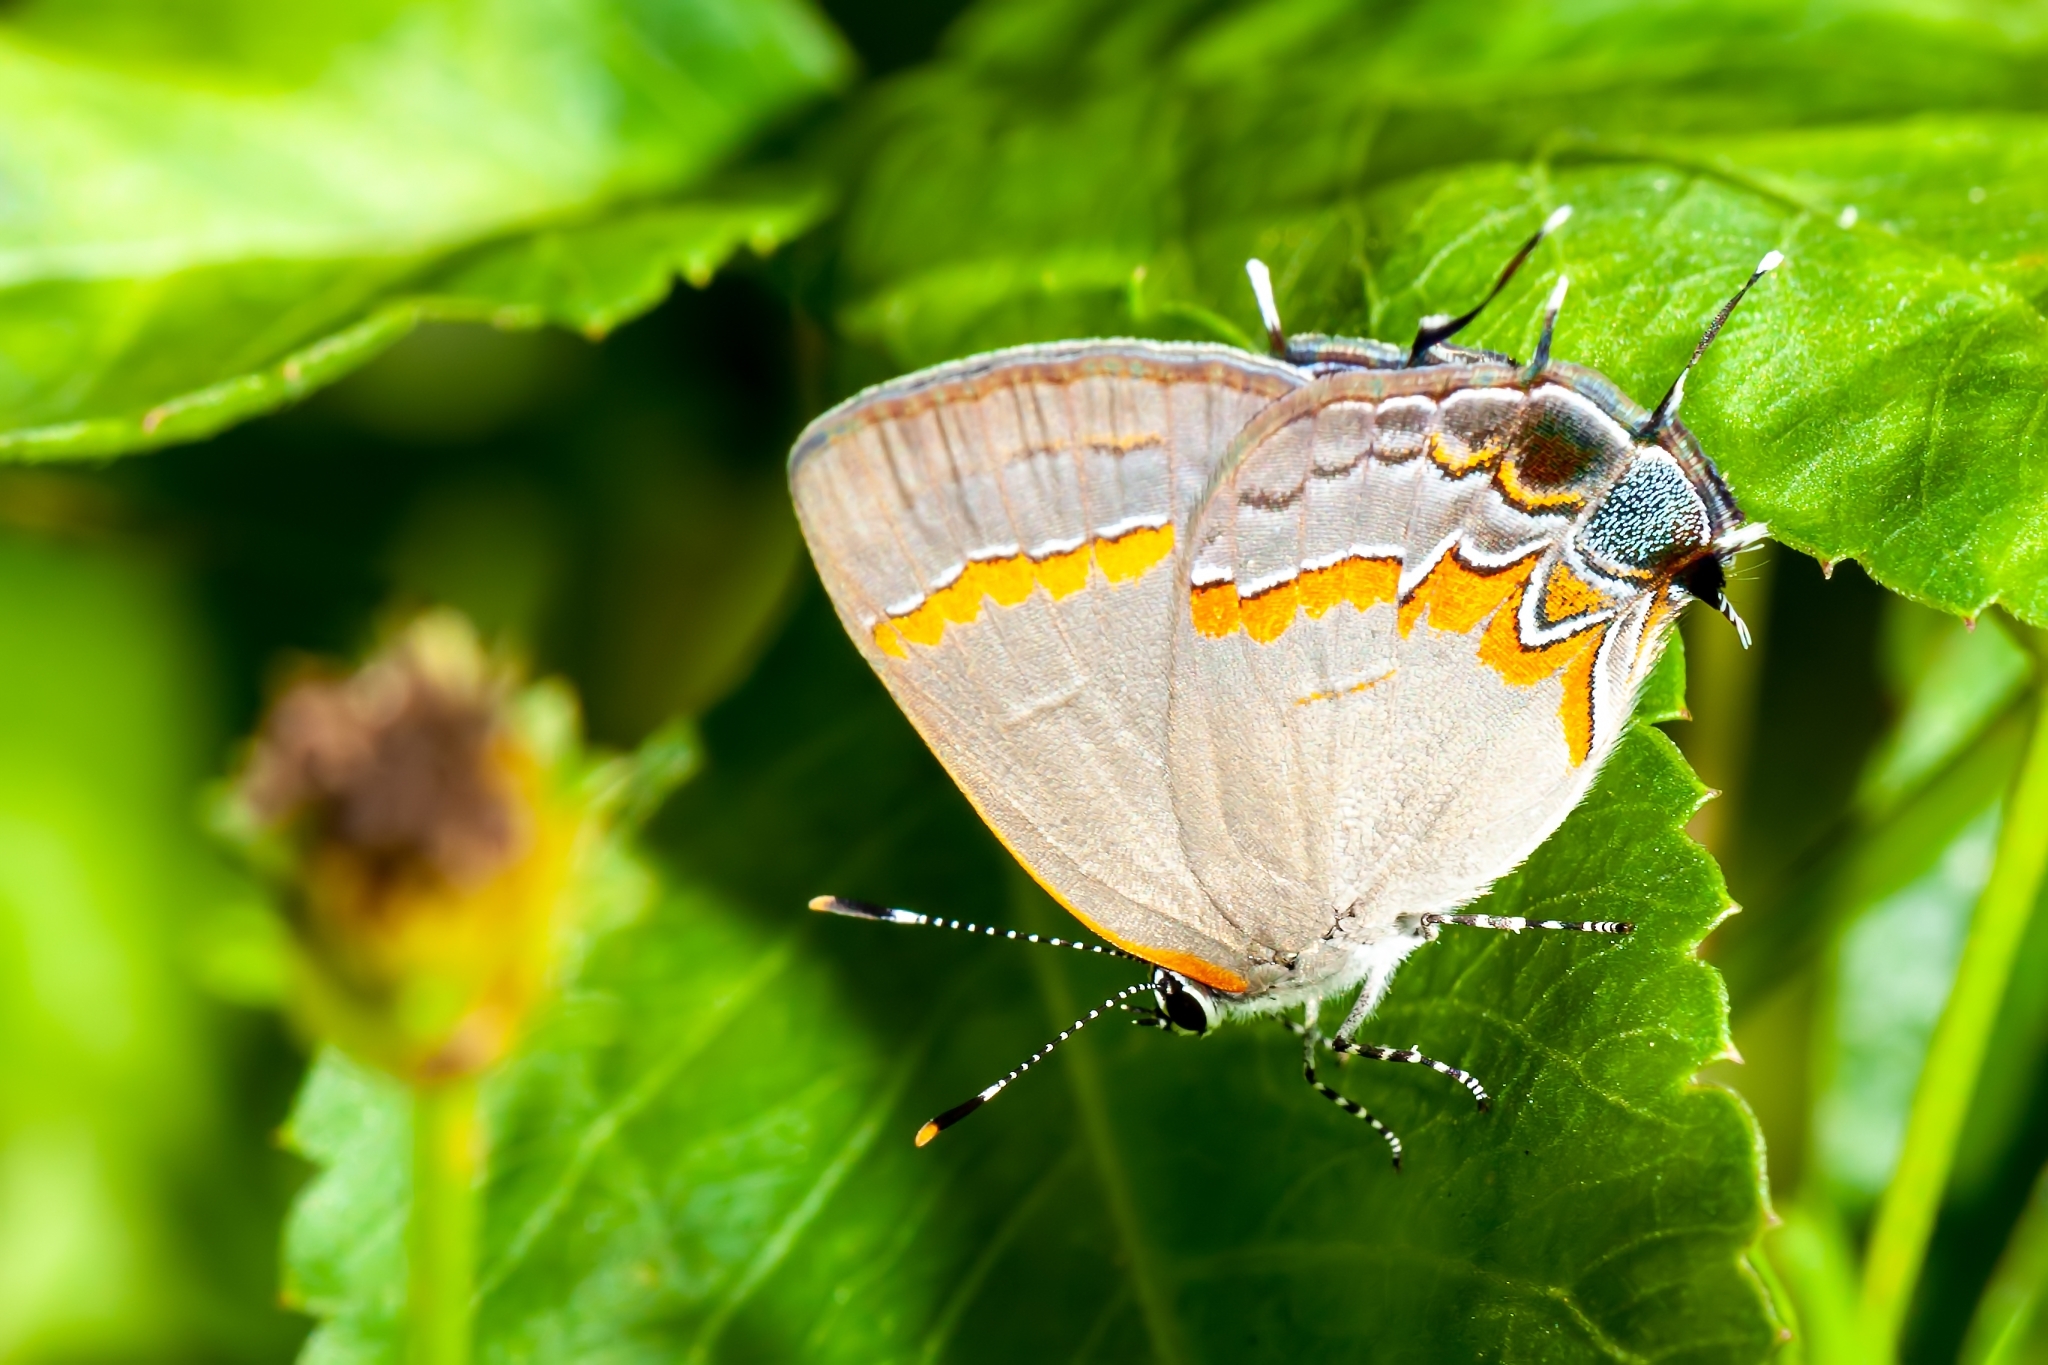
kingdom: Animalia
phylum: Arthropoda
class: Insecta
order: Lepidoptera
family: Lycaenidae
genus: Calycopis
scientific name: Calycopis cecrops
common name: Red-banded hairstreak
